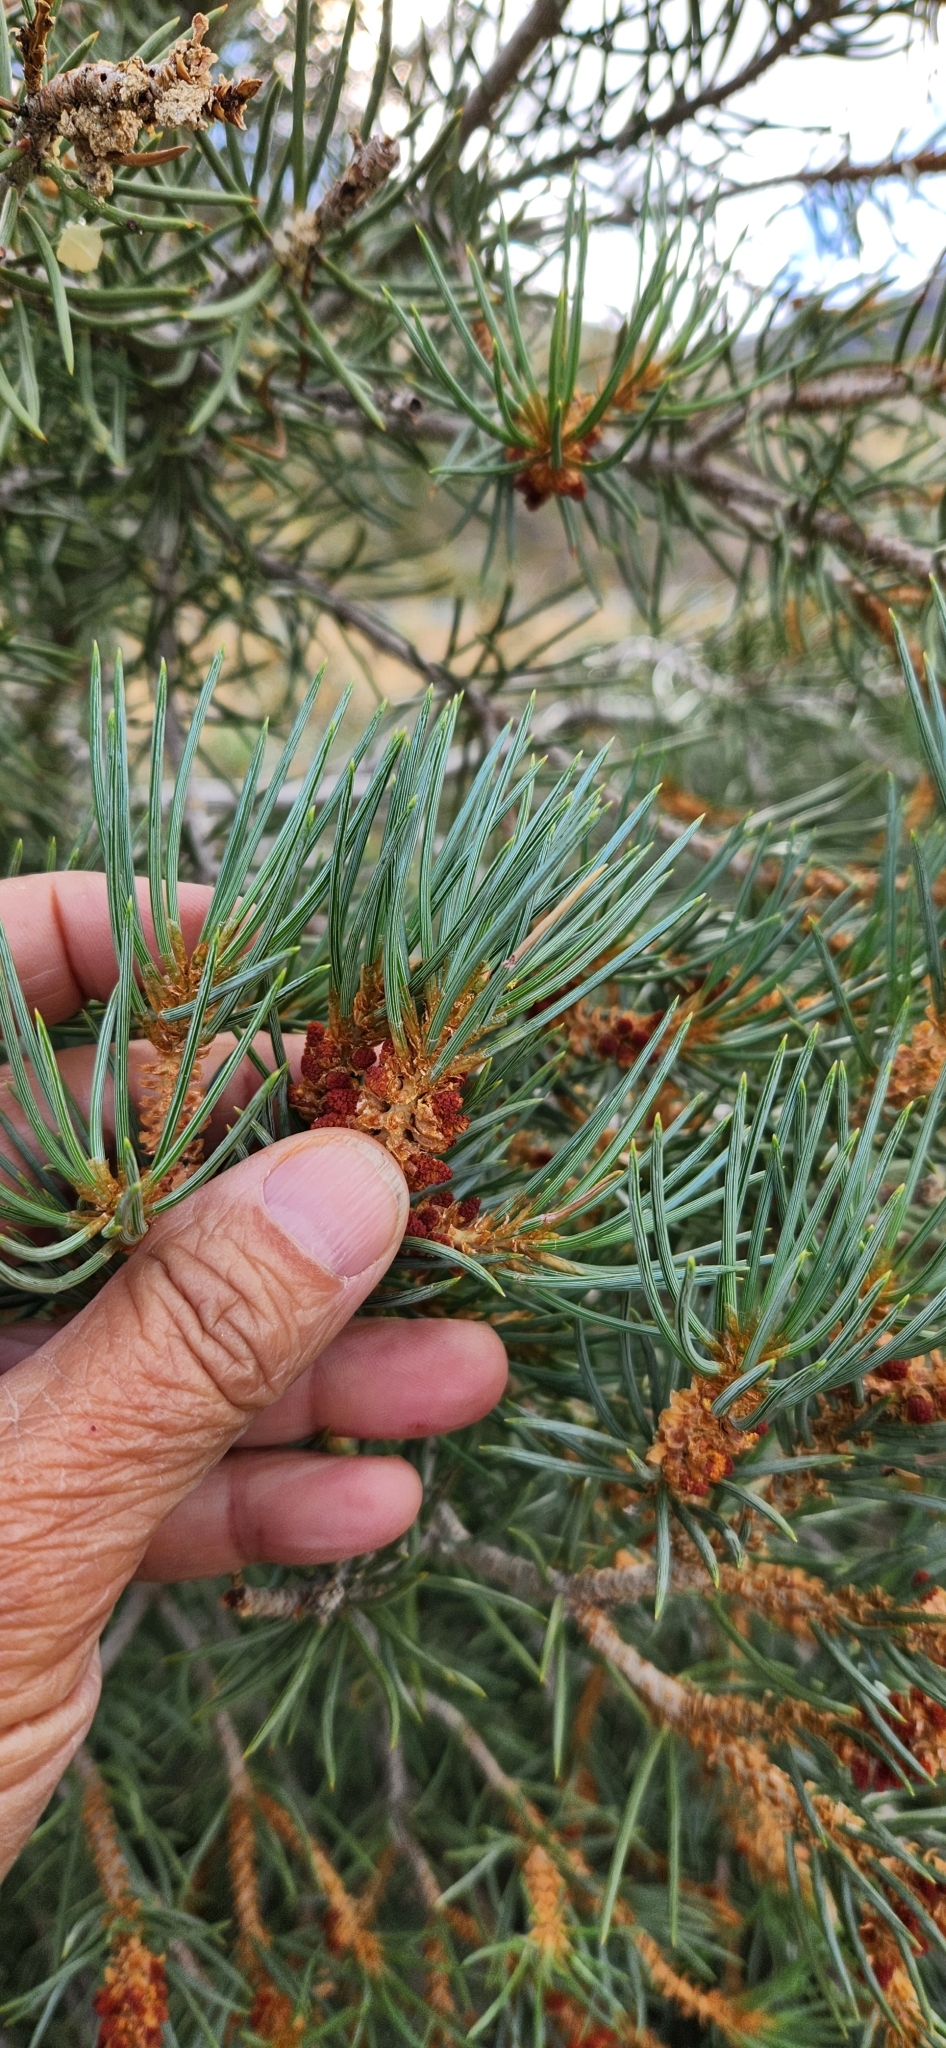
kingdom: Plantae
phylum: Tracheophyta
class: Pinopsida
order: Pinales
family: Pinaceae
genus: Pinus
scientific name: Pinus monophylla
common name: One-leaved nut pine
